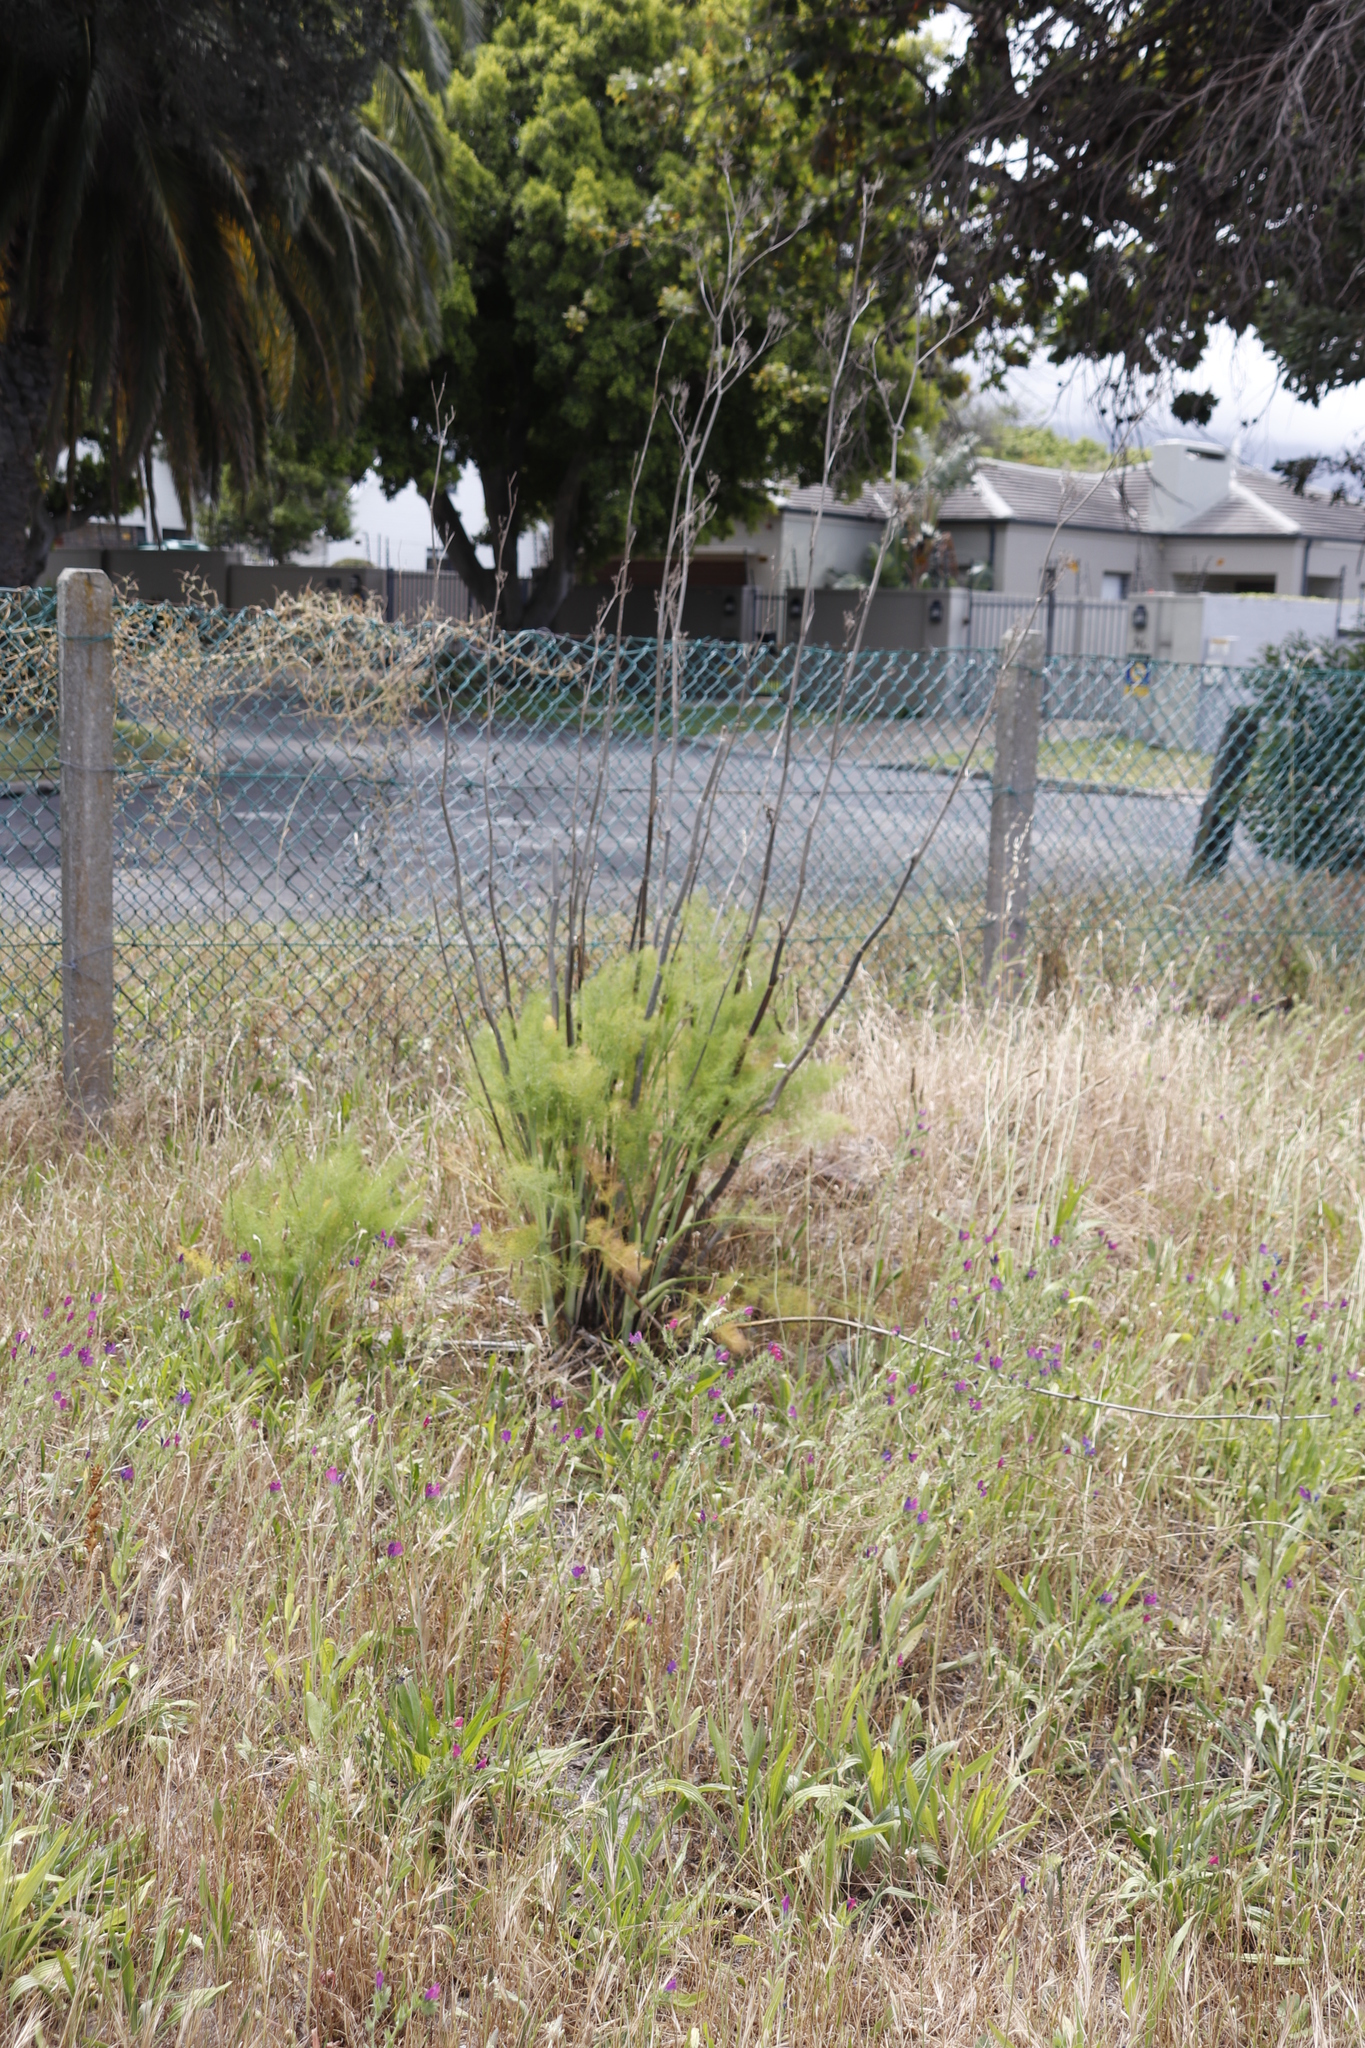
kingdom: Plantae
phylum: Tracheophyta
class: Magnoliopsida
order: Apiales
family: Apiaceae
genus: Foeniculum
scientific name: Foeniculum vulgare
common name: Fennel
